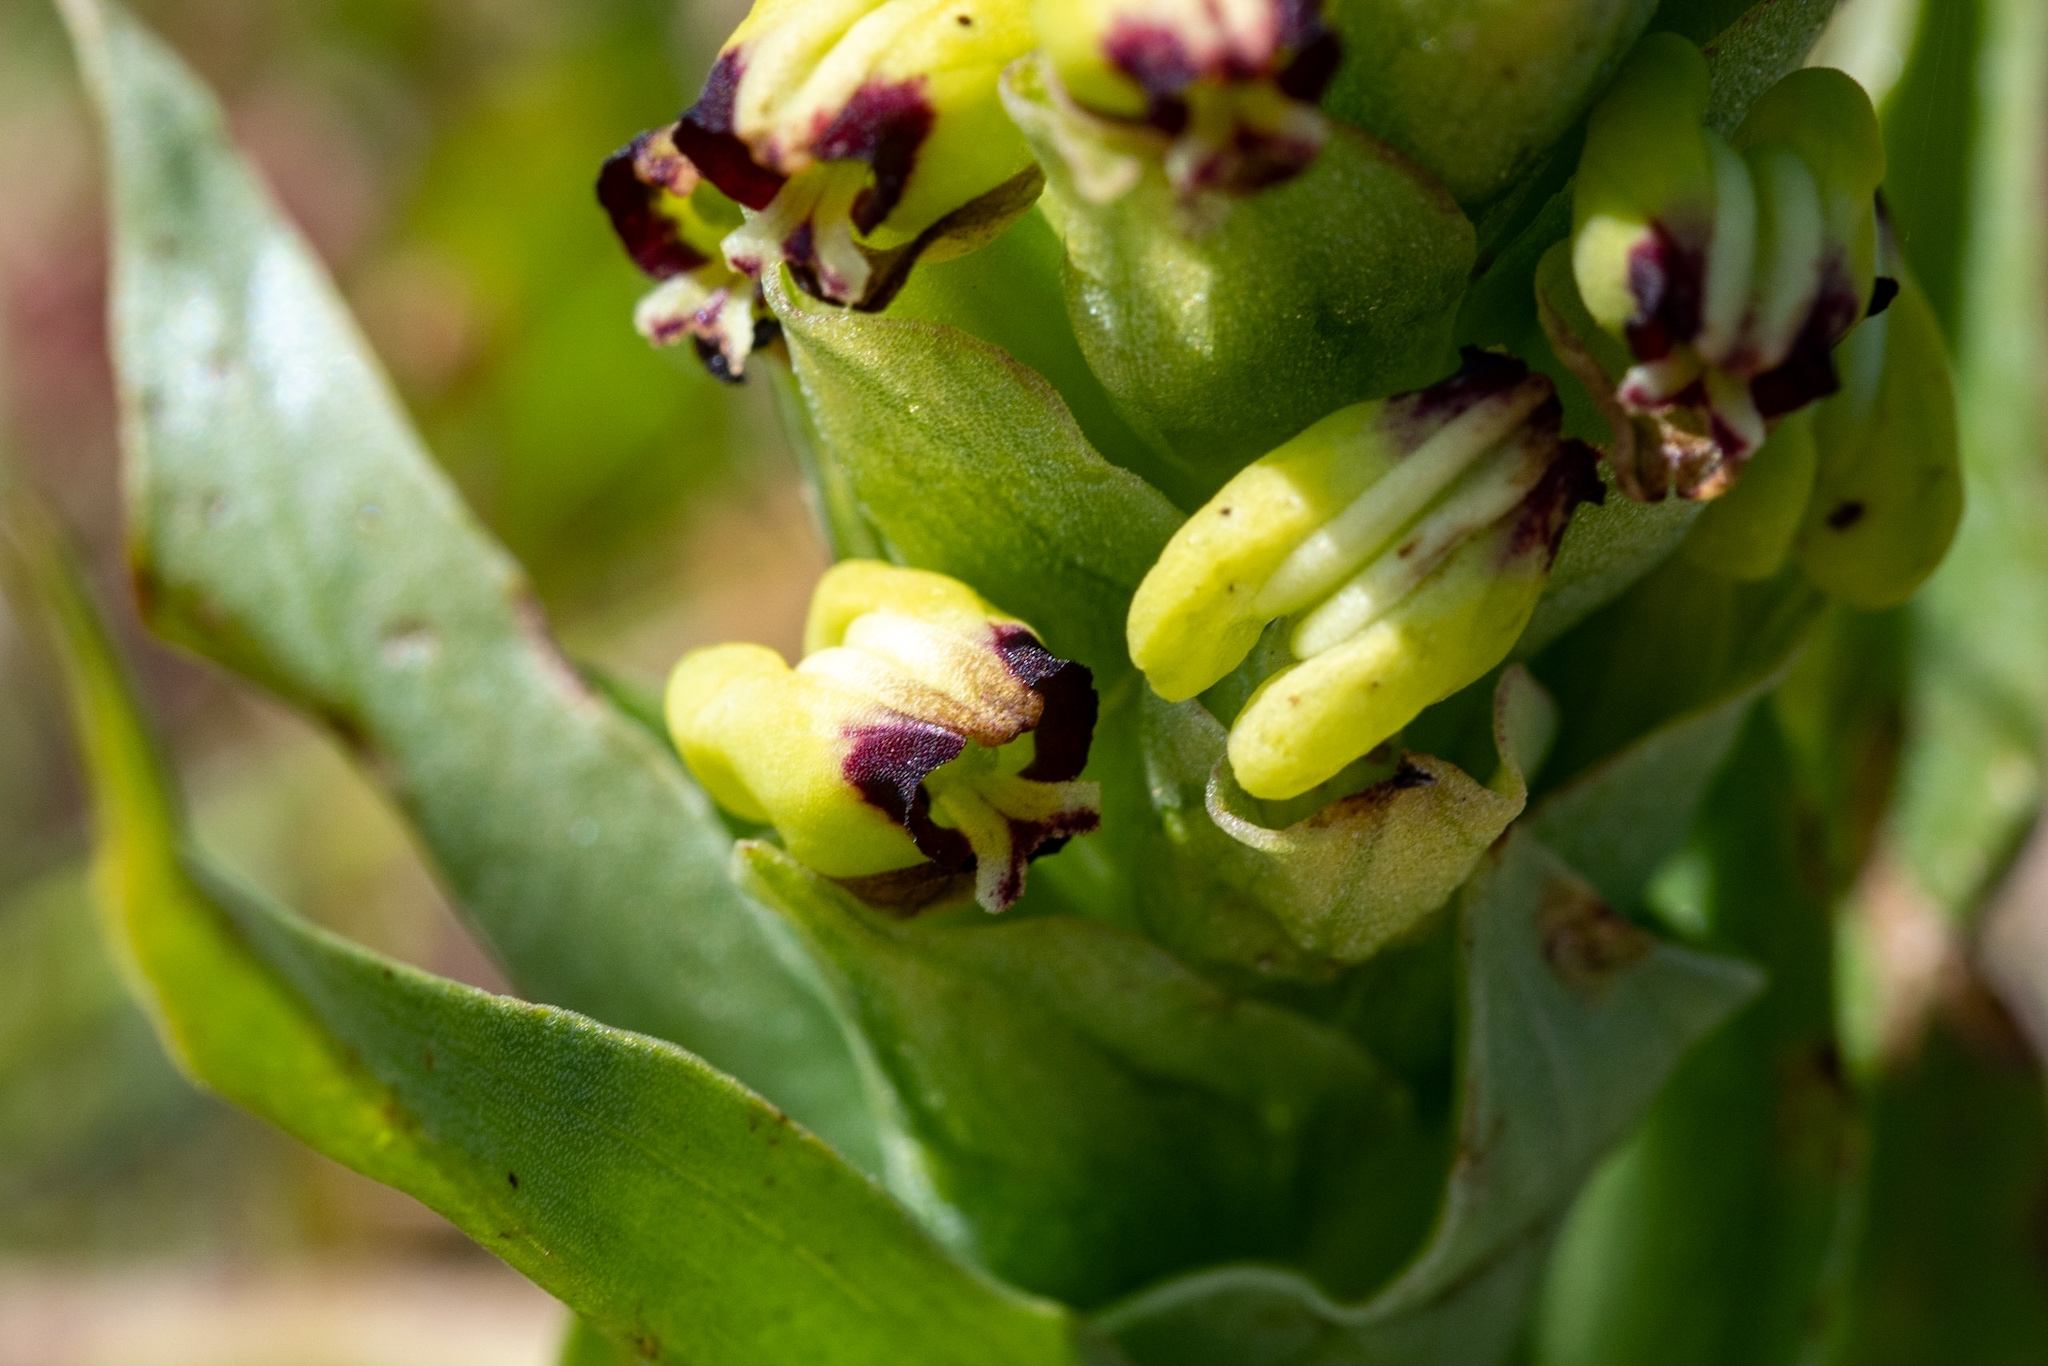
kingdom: Plantae
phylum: Tracheophyta
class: Liliopsida
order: Asparagales
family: Orchidaceae
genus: Corycium
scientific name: Corycium orobanchoides
